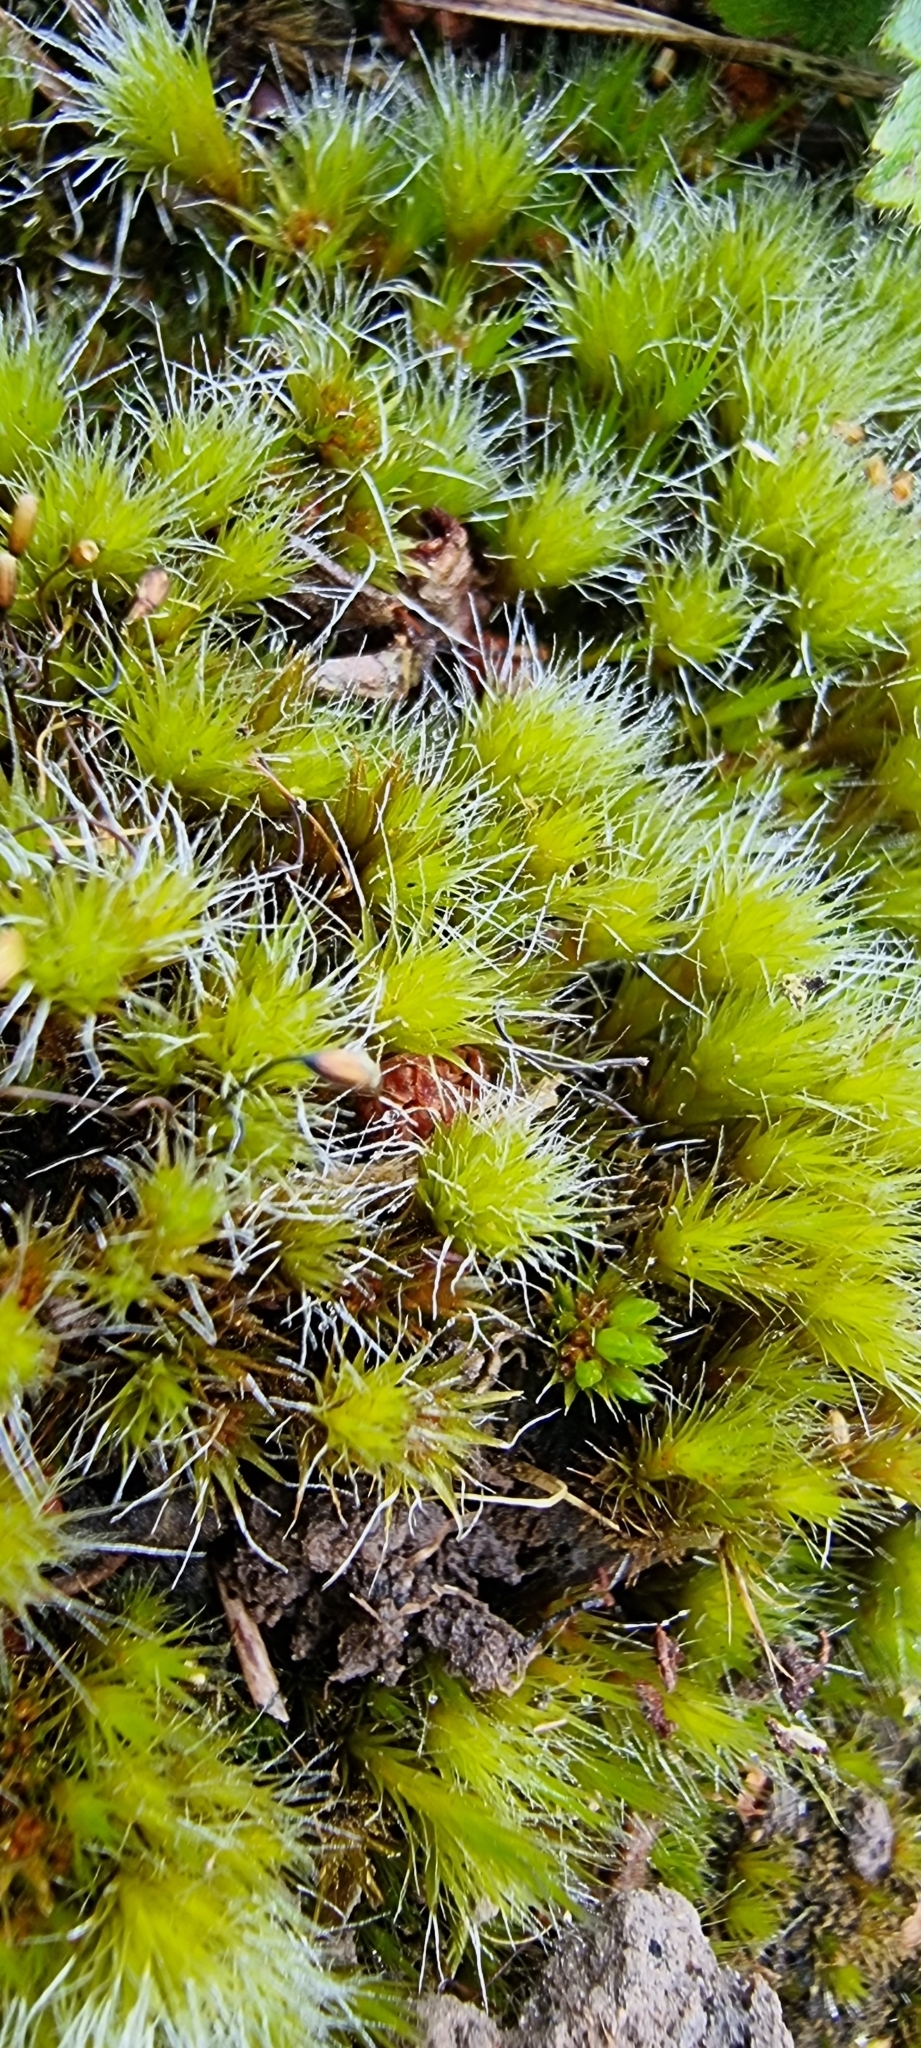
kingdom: Plantae
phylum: Bryophyta
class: Bryopsida
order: Dicranales
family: Leucobryaceae
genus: Campylopus
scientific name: Campylopus introflexus
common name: Heath star moss
